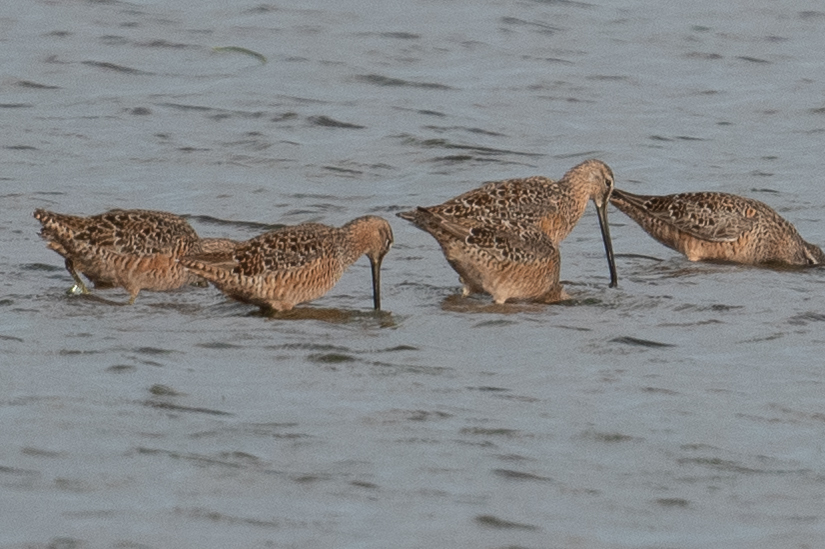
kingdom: Animalia
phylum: Chordata
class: Aves
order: Charadriiformes
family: Scolopacidae
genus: Limnodromus
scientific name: Limnodromus scolopaceus
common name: Long-billed dowitcher
